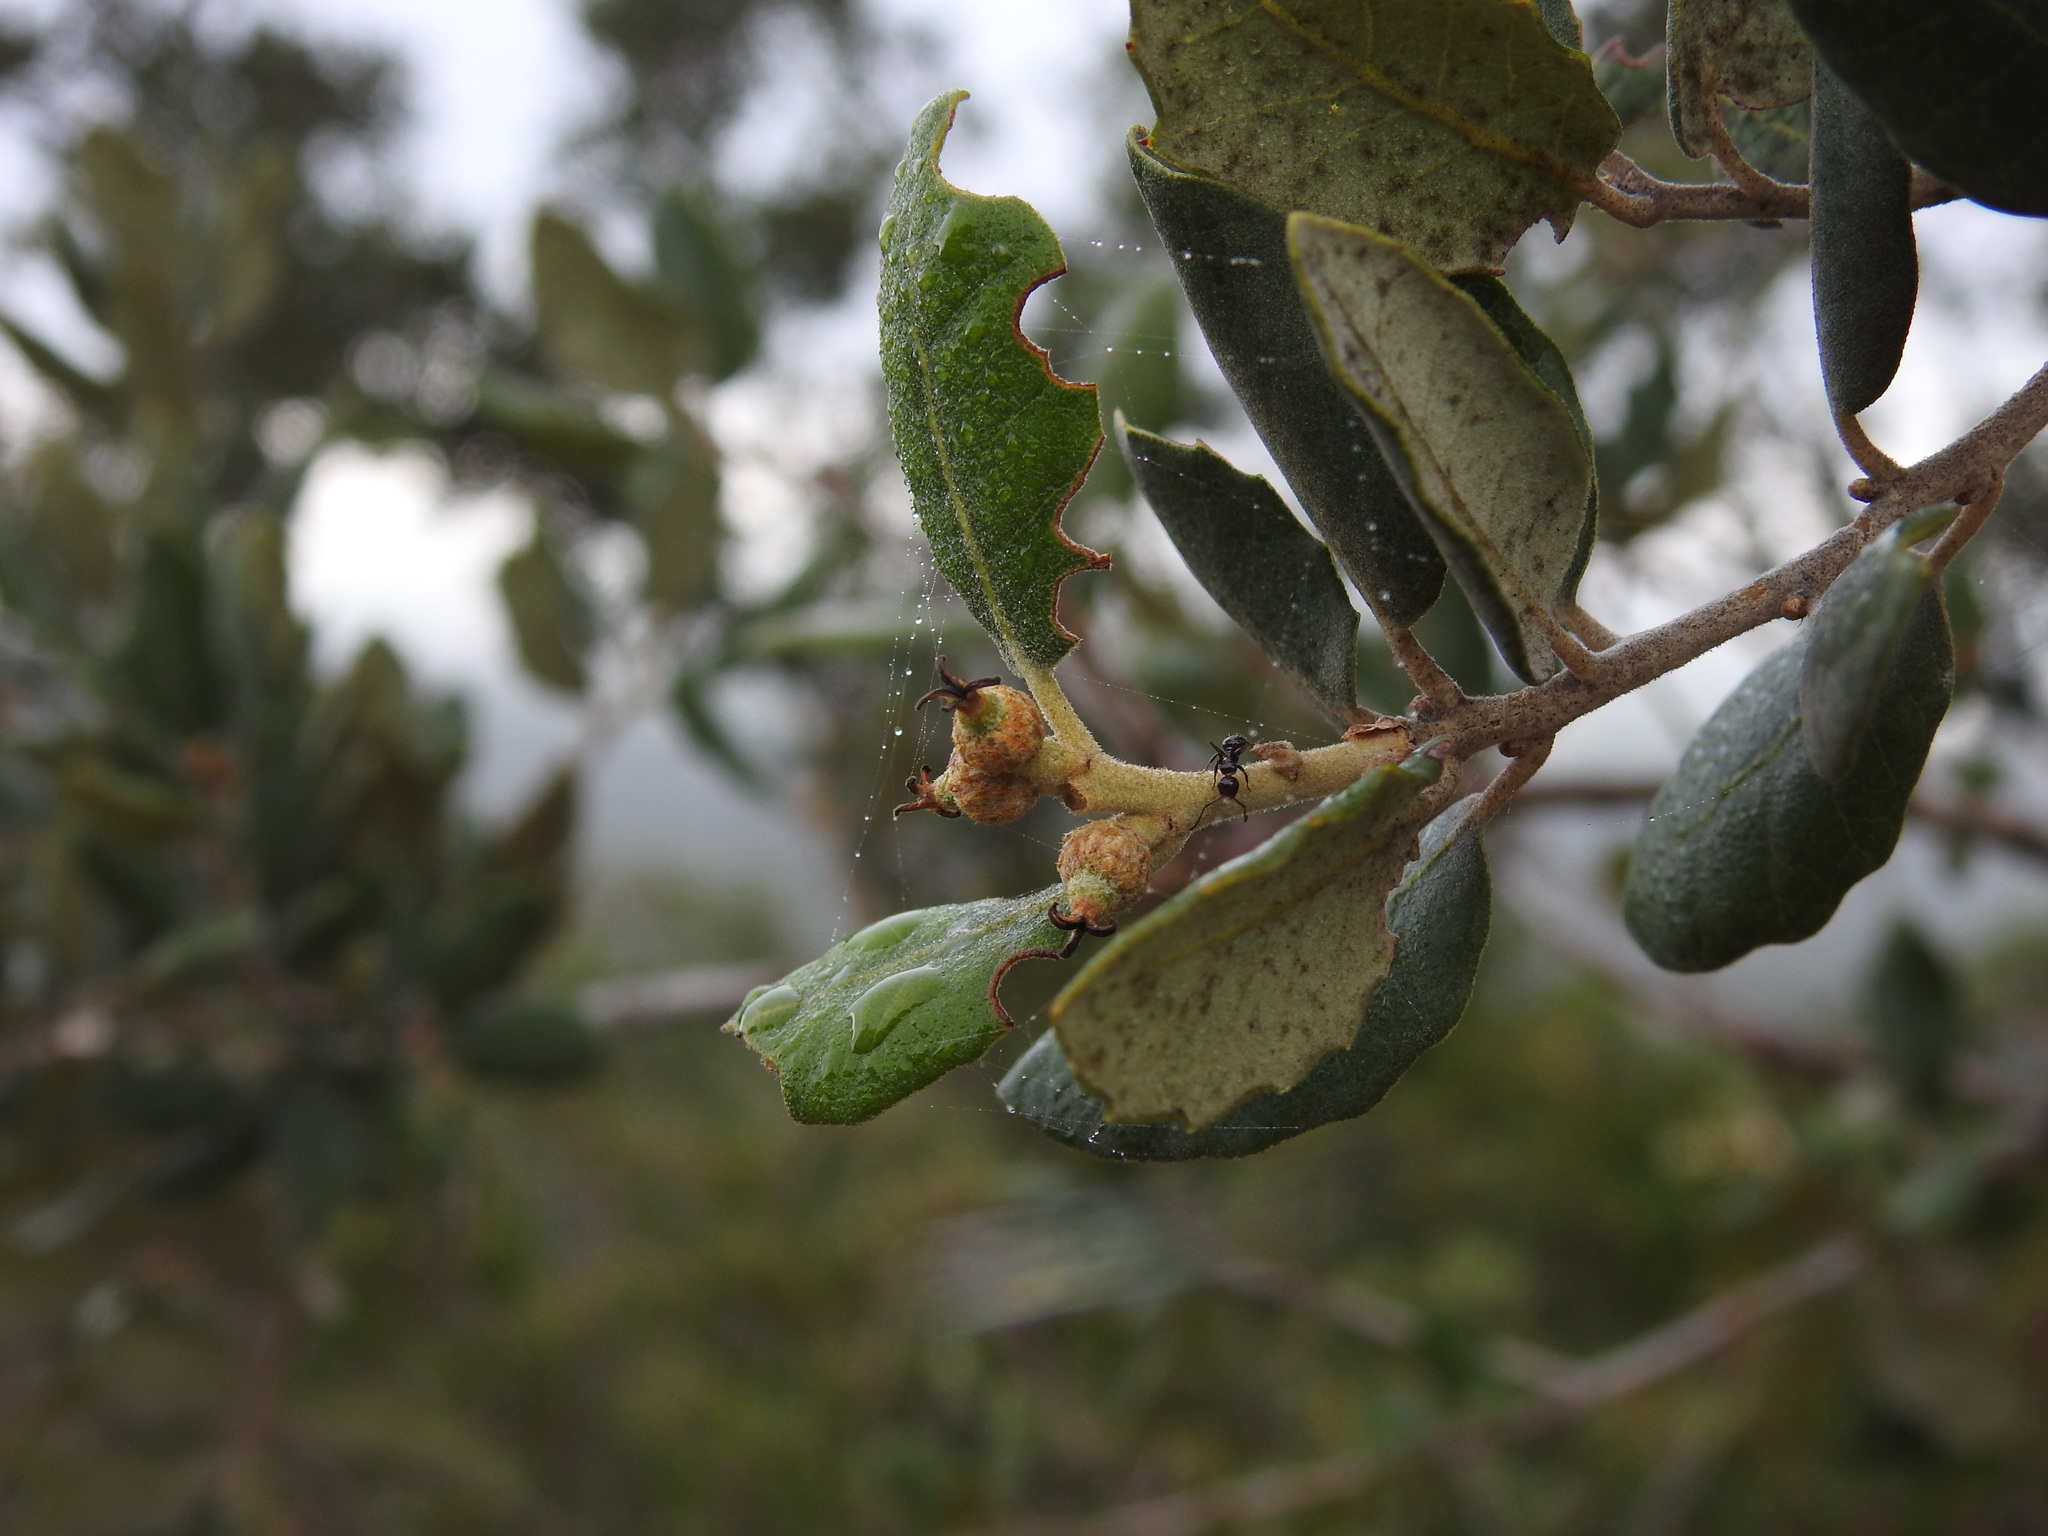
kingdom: Plantae
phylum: Tracheophyta
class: Magnoliopsida
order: Fagales
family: Fagaceae
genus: Quercus
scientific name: Quercus rotundifolia
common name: Holm oak
